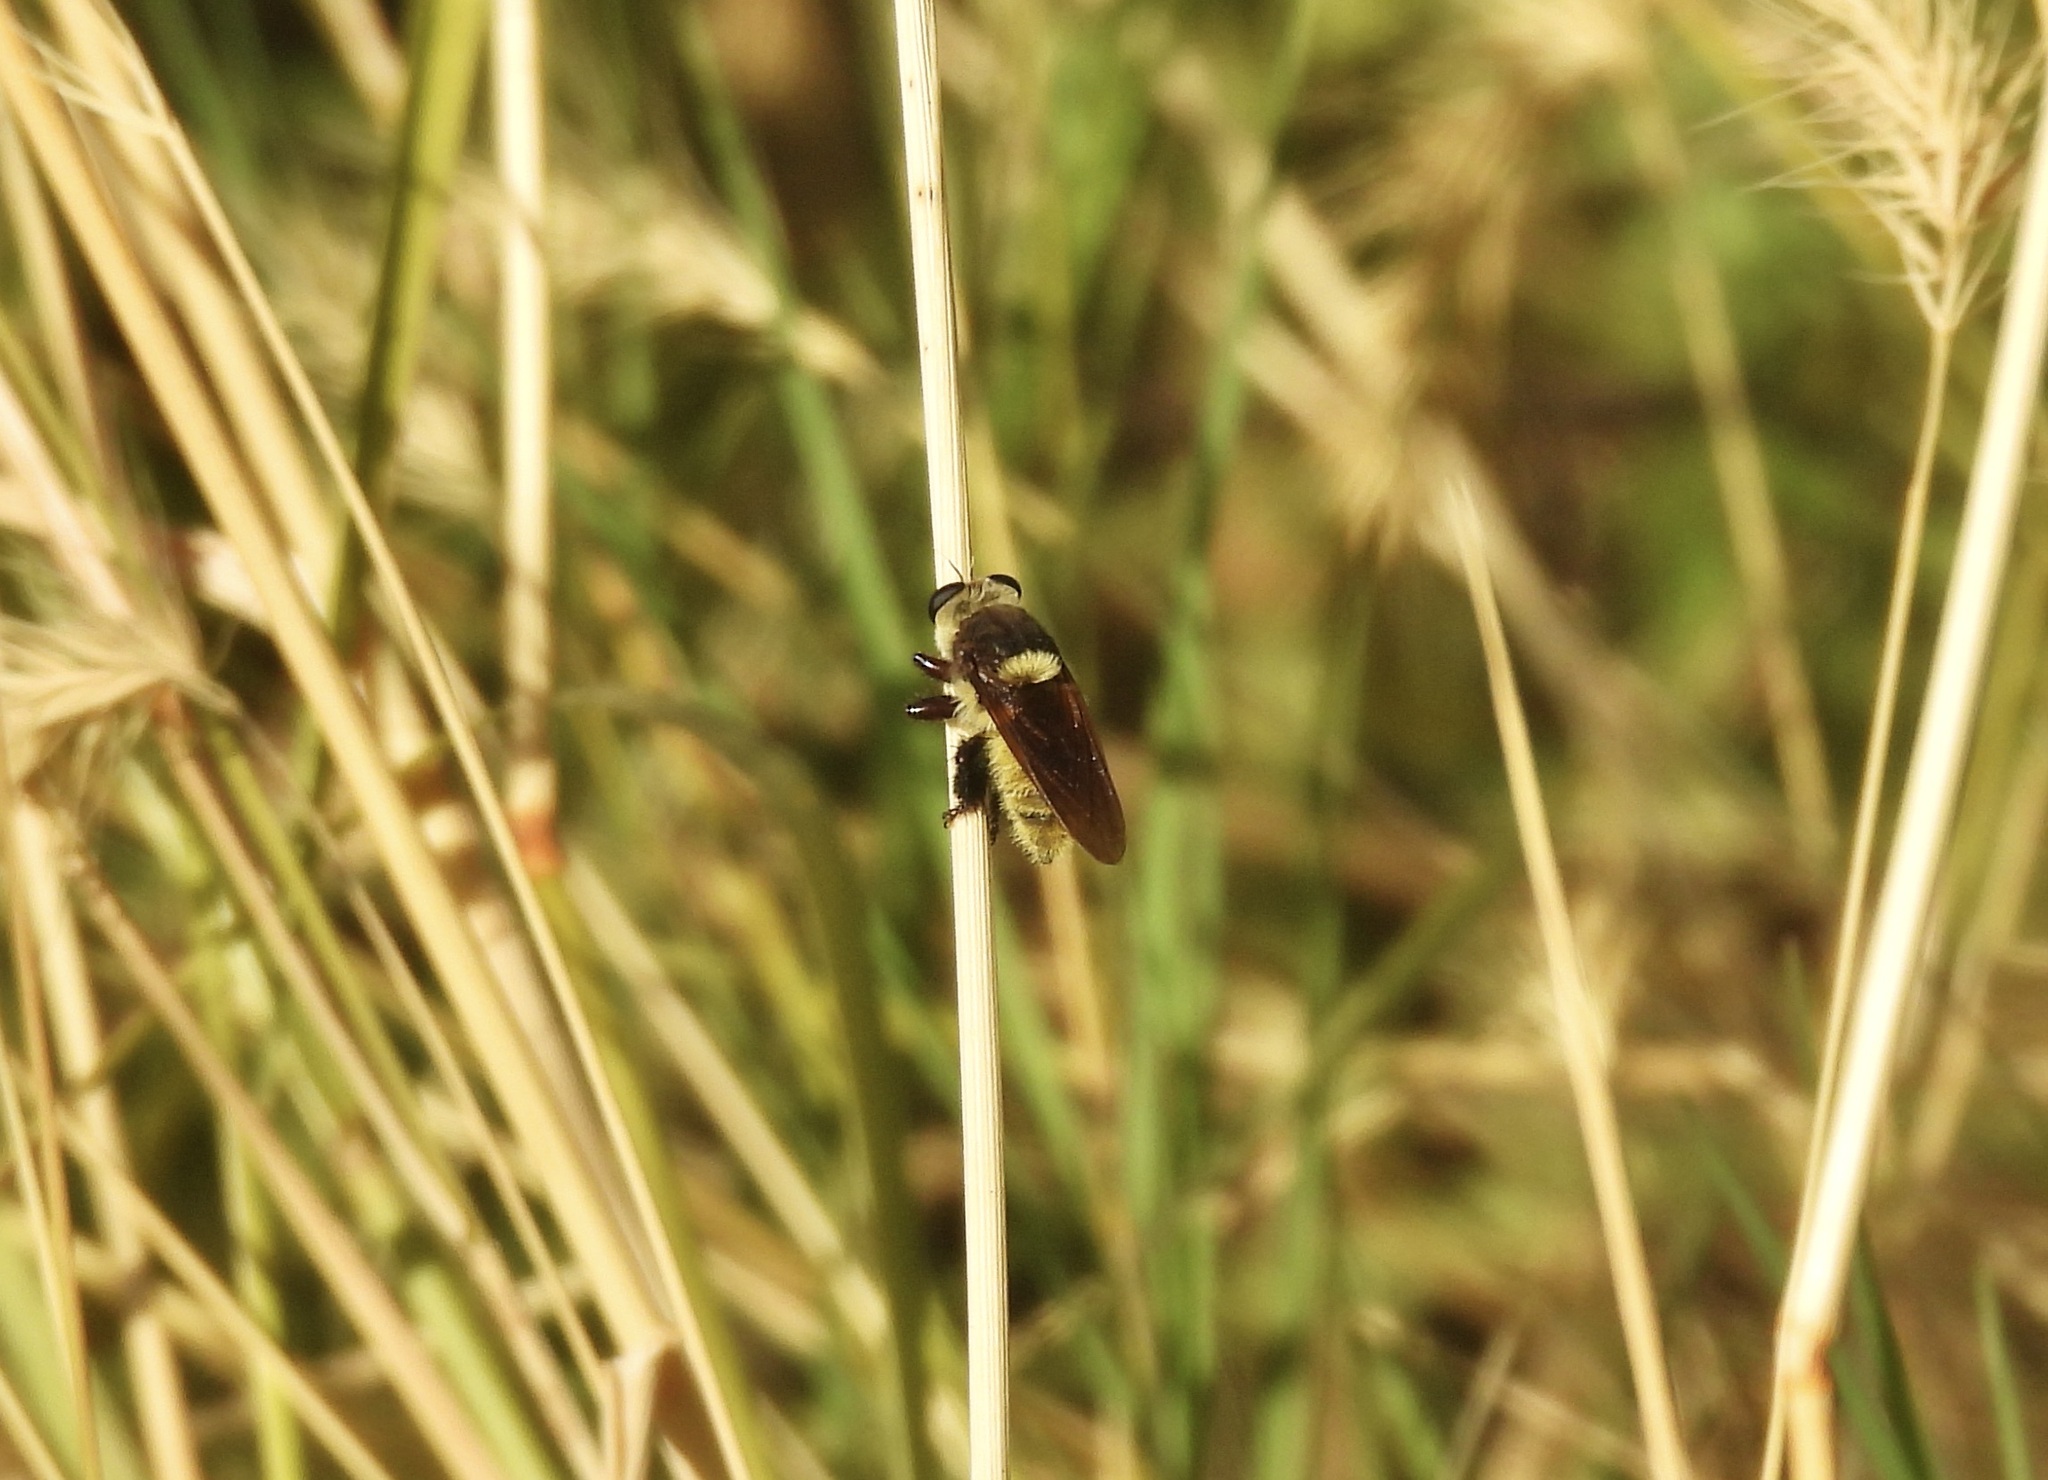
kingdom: Animalia
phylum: Arthropoda
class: Insecta
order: Diptera
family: Asilidae
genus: Mallophora
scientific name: Mallophora fautrix
